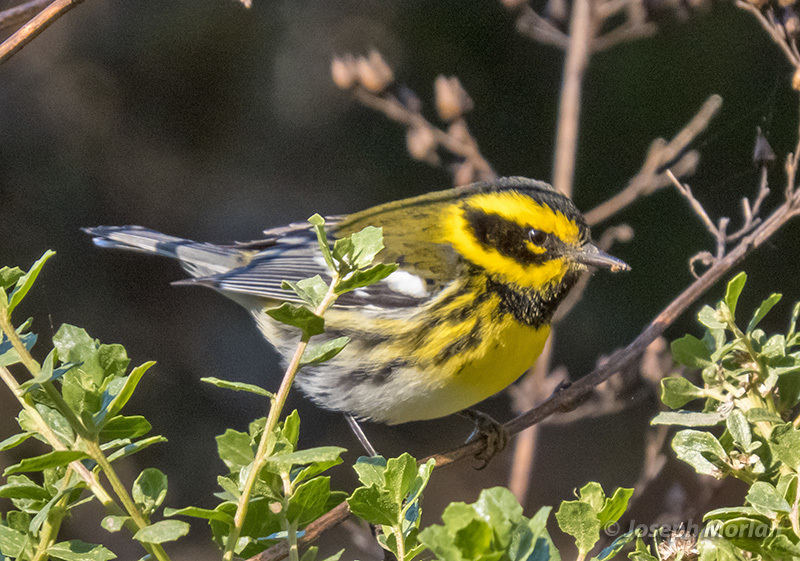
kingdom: Animalia
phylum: Chordata
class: Aves
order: Passeriformes
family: Parulidae
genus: Setophaga
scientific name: Setophaga townsendi
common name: Townsend's warbler
